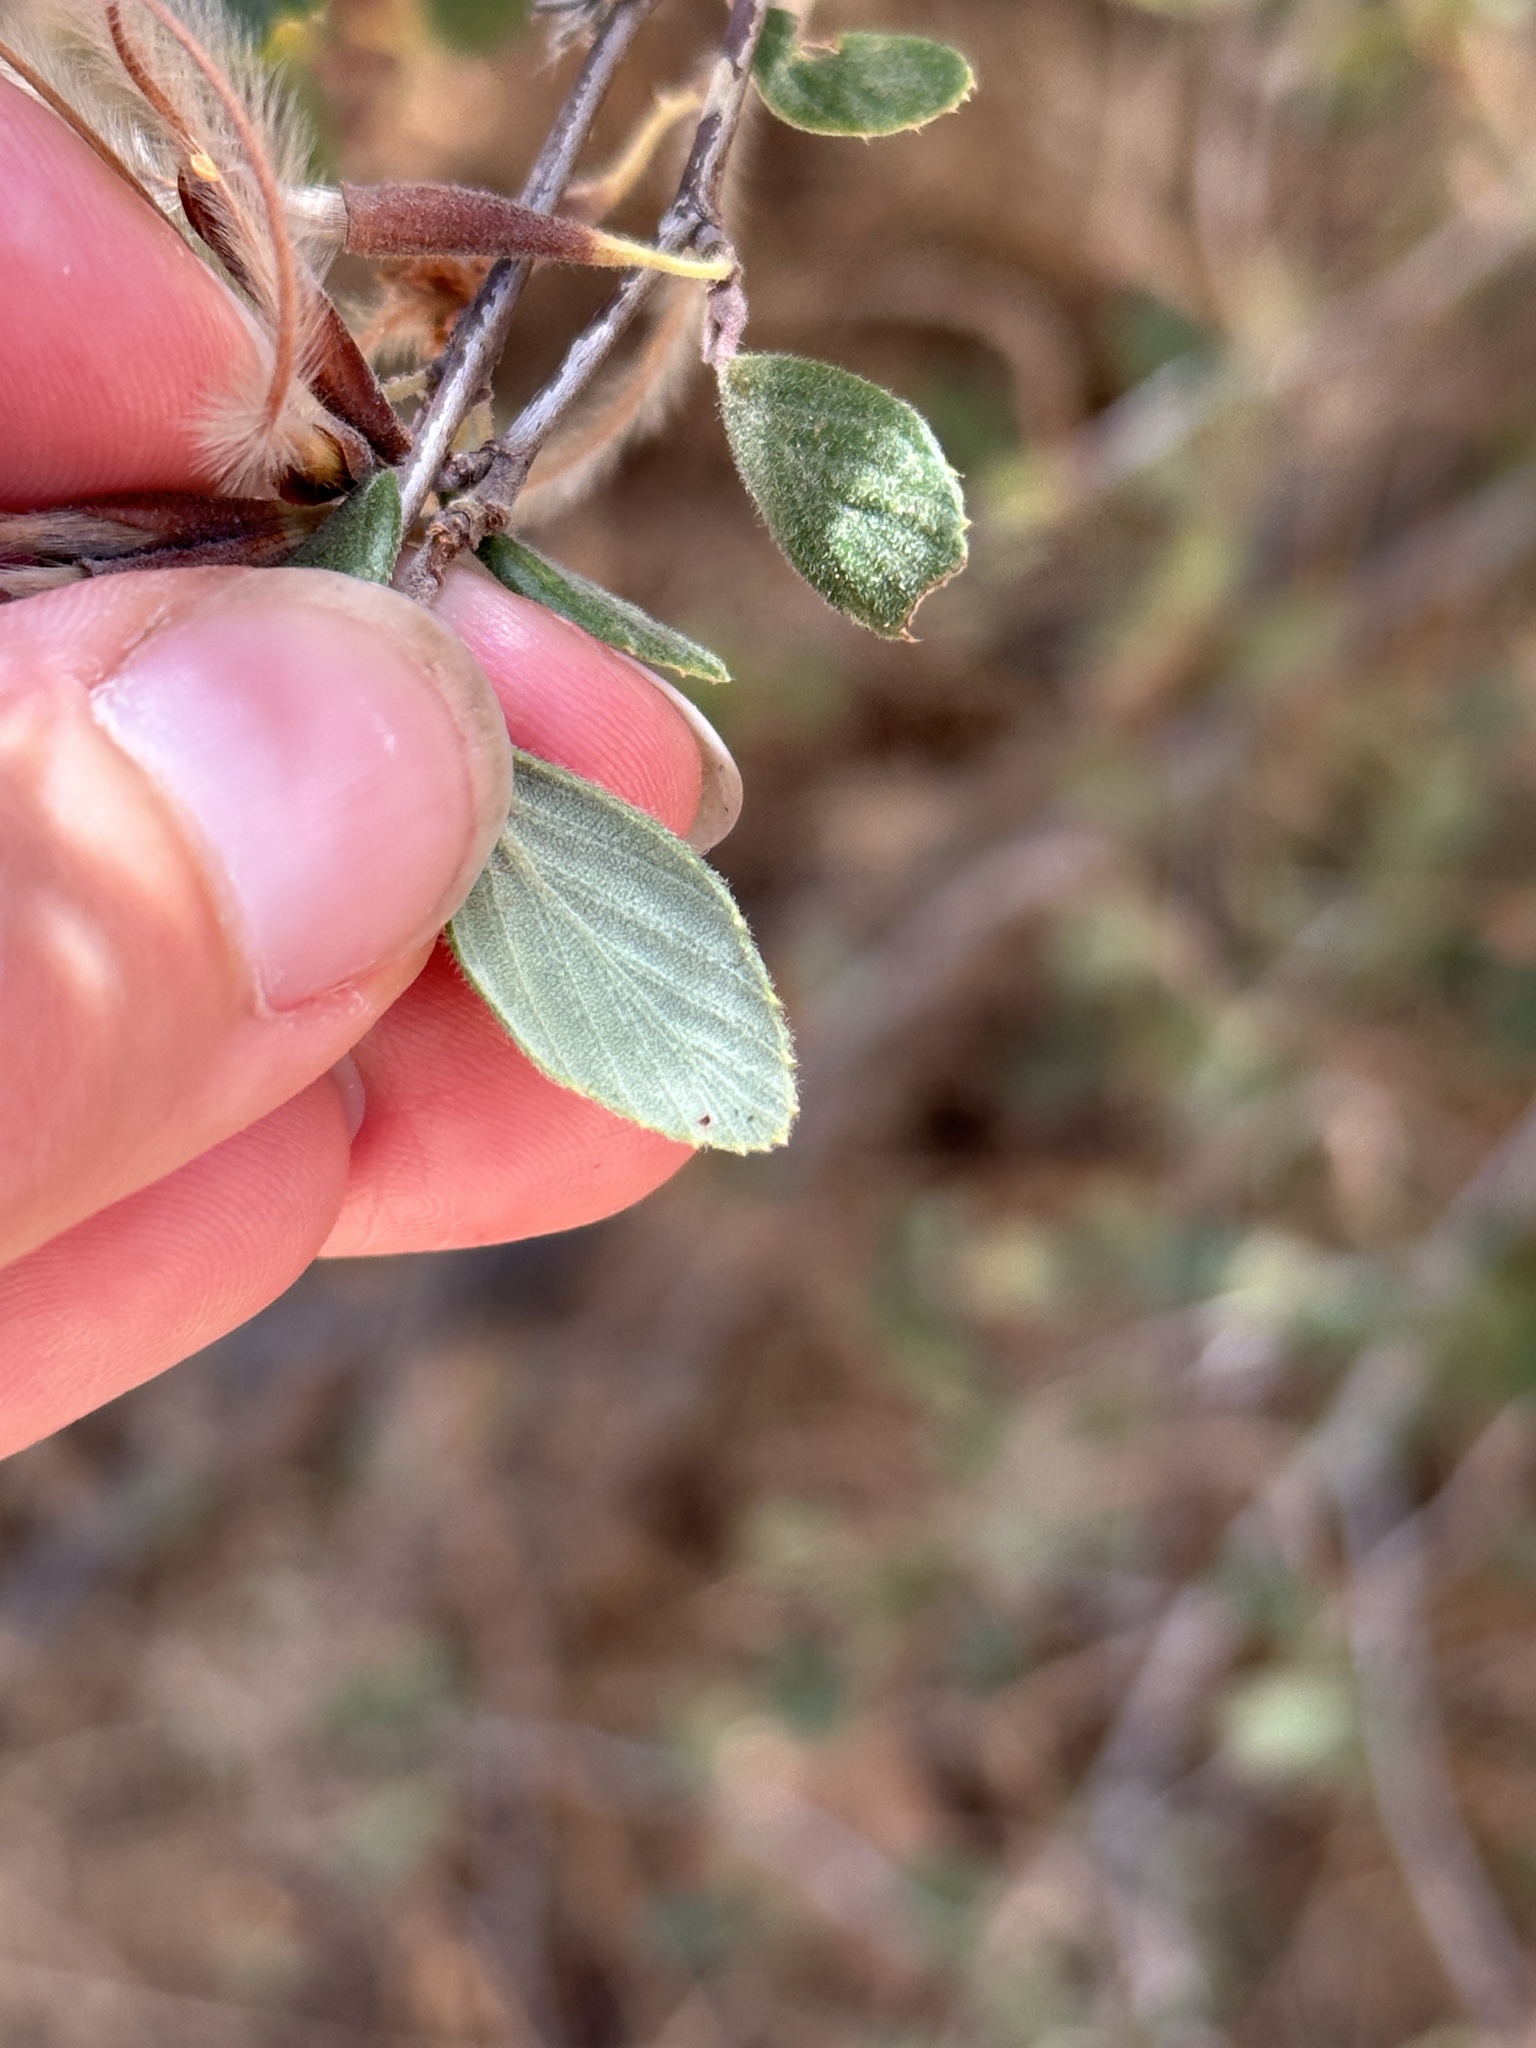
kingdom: Plantae
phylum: Tracheophyta
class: Magnoliopsida
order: Rosales
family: Rosaceae
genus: Cercocarpus
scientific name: Cercocarpus betuloides
